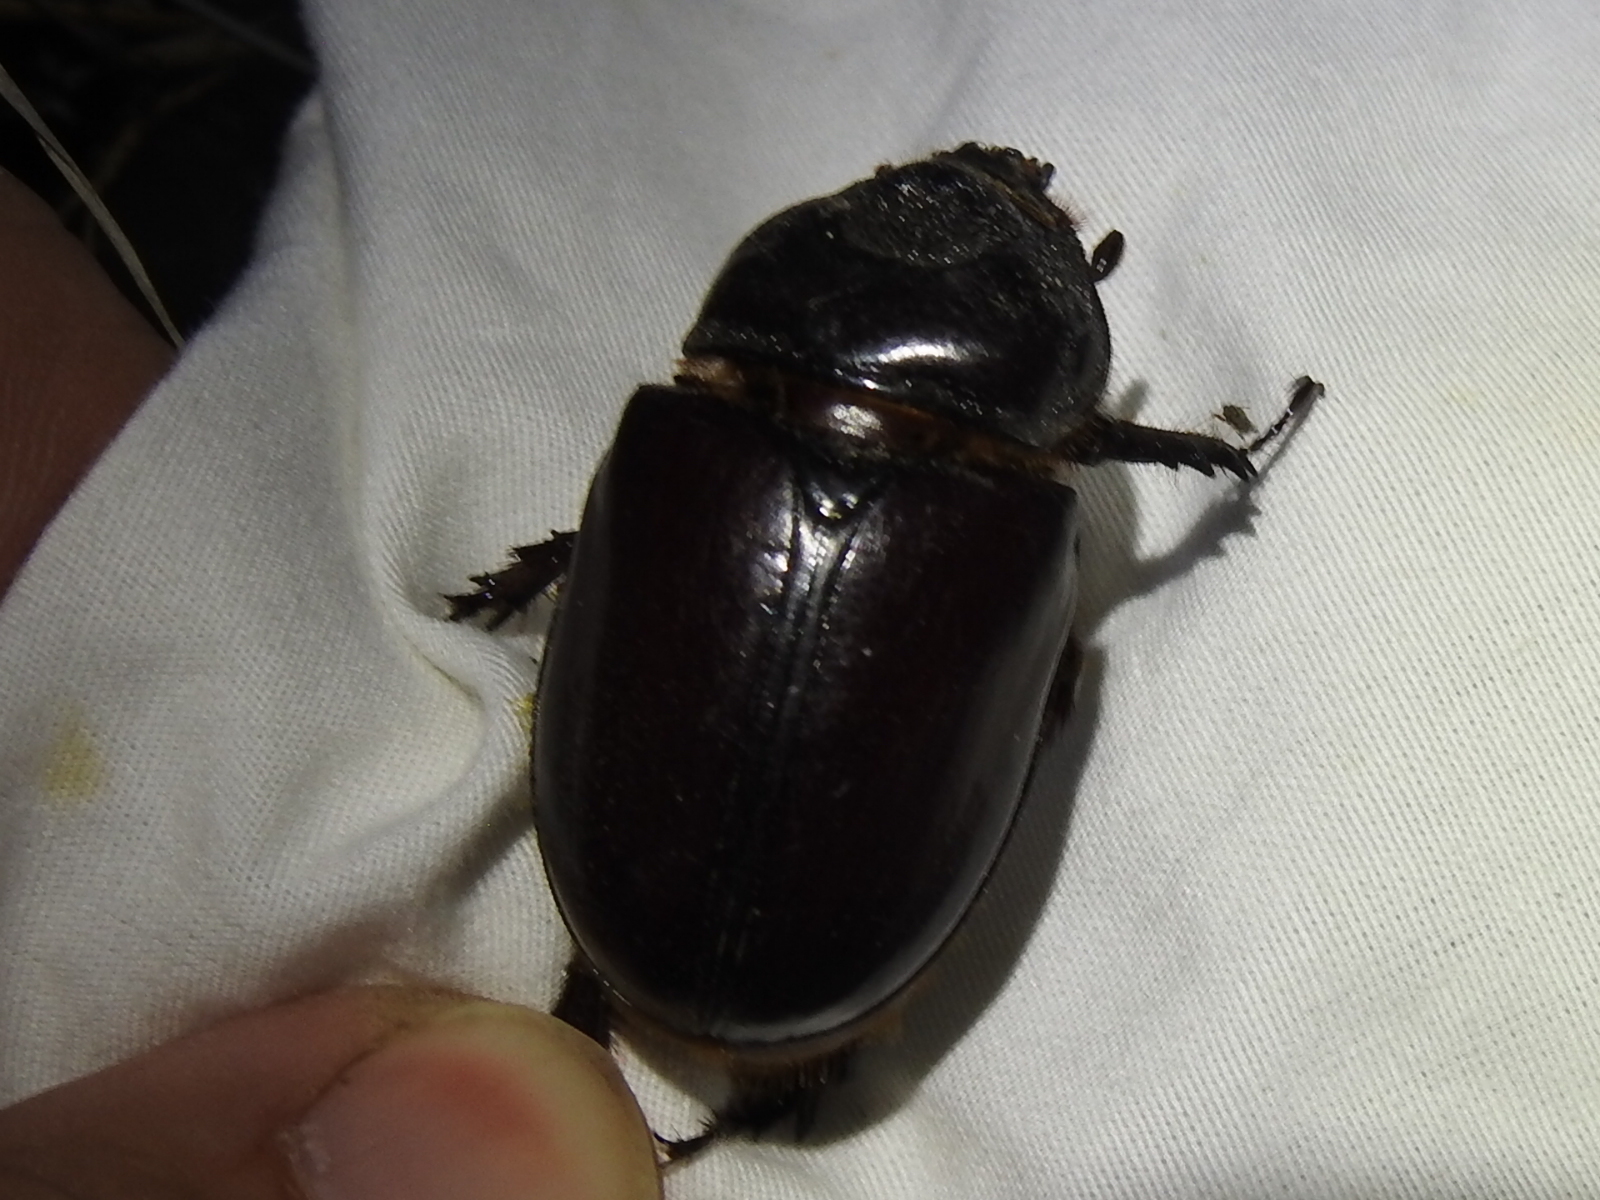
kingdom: Animalia
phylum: Arthropoda
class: Insecta
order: Coleoptera
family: Scarabaeidae
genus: Strategus
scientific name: Strategus aloeus
